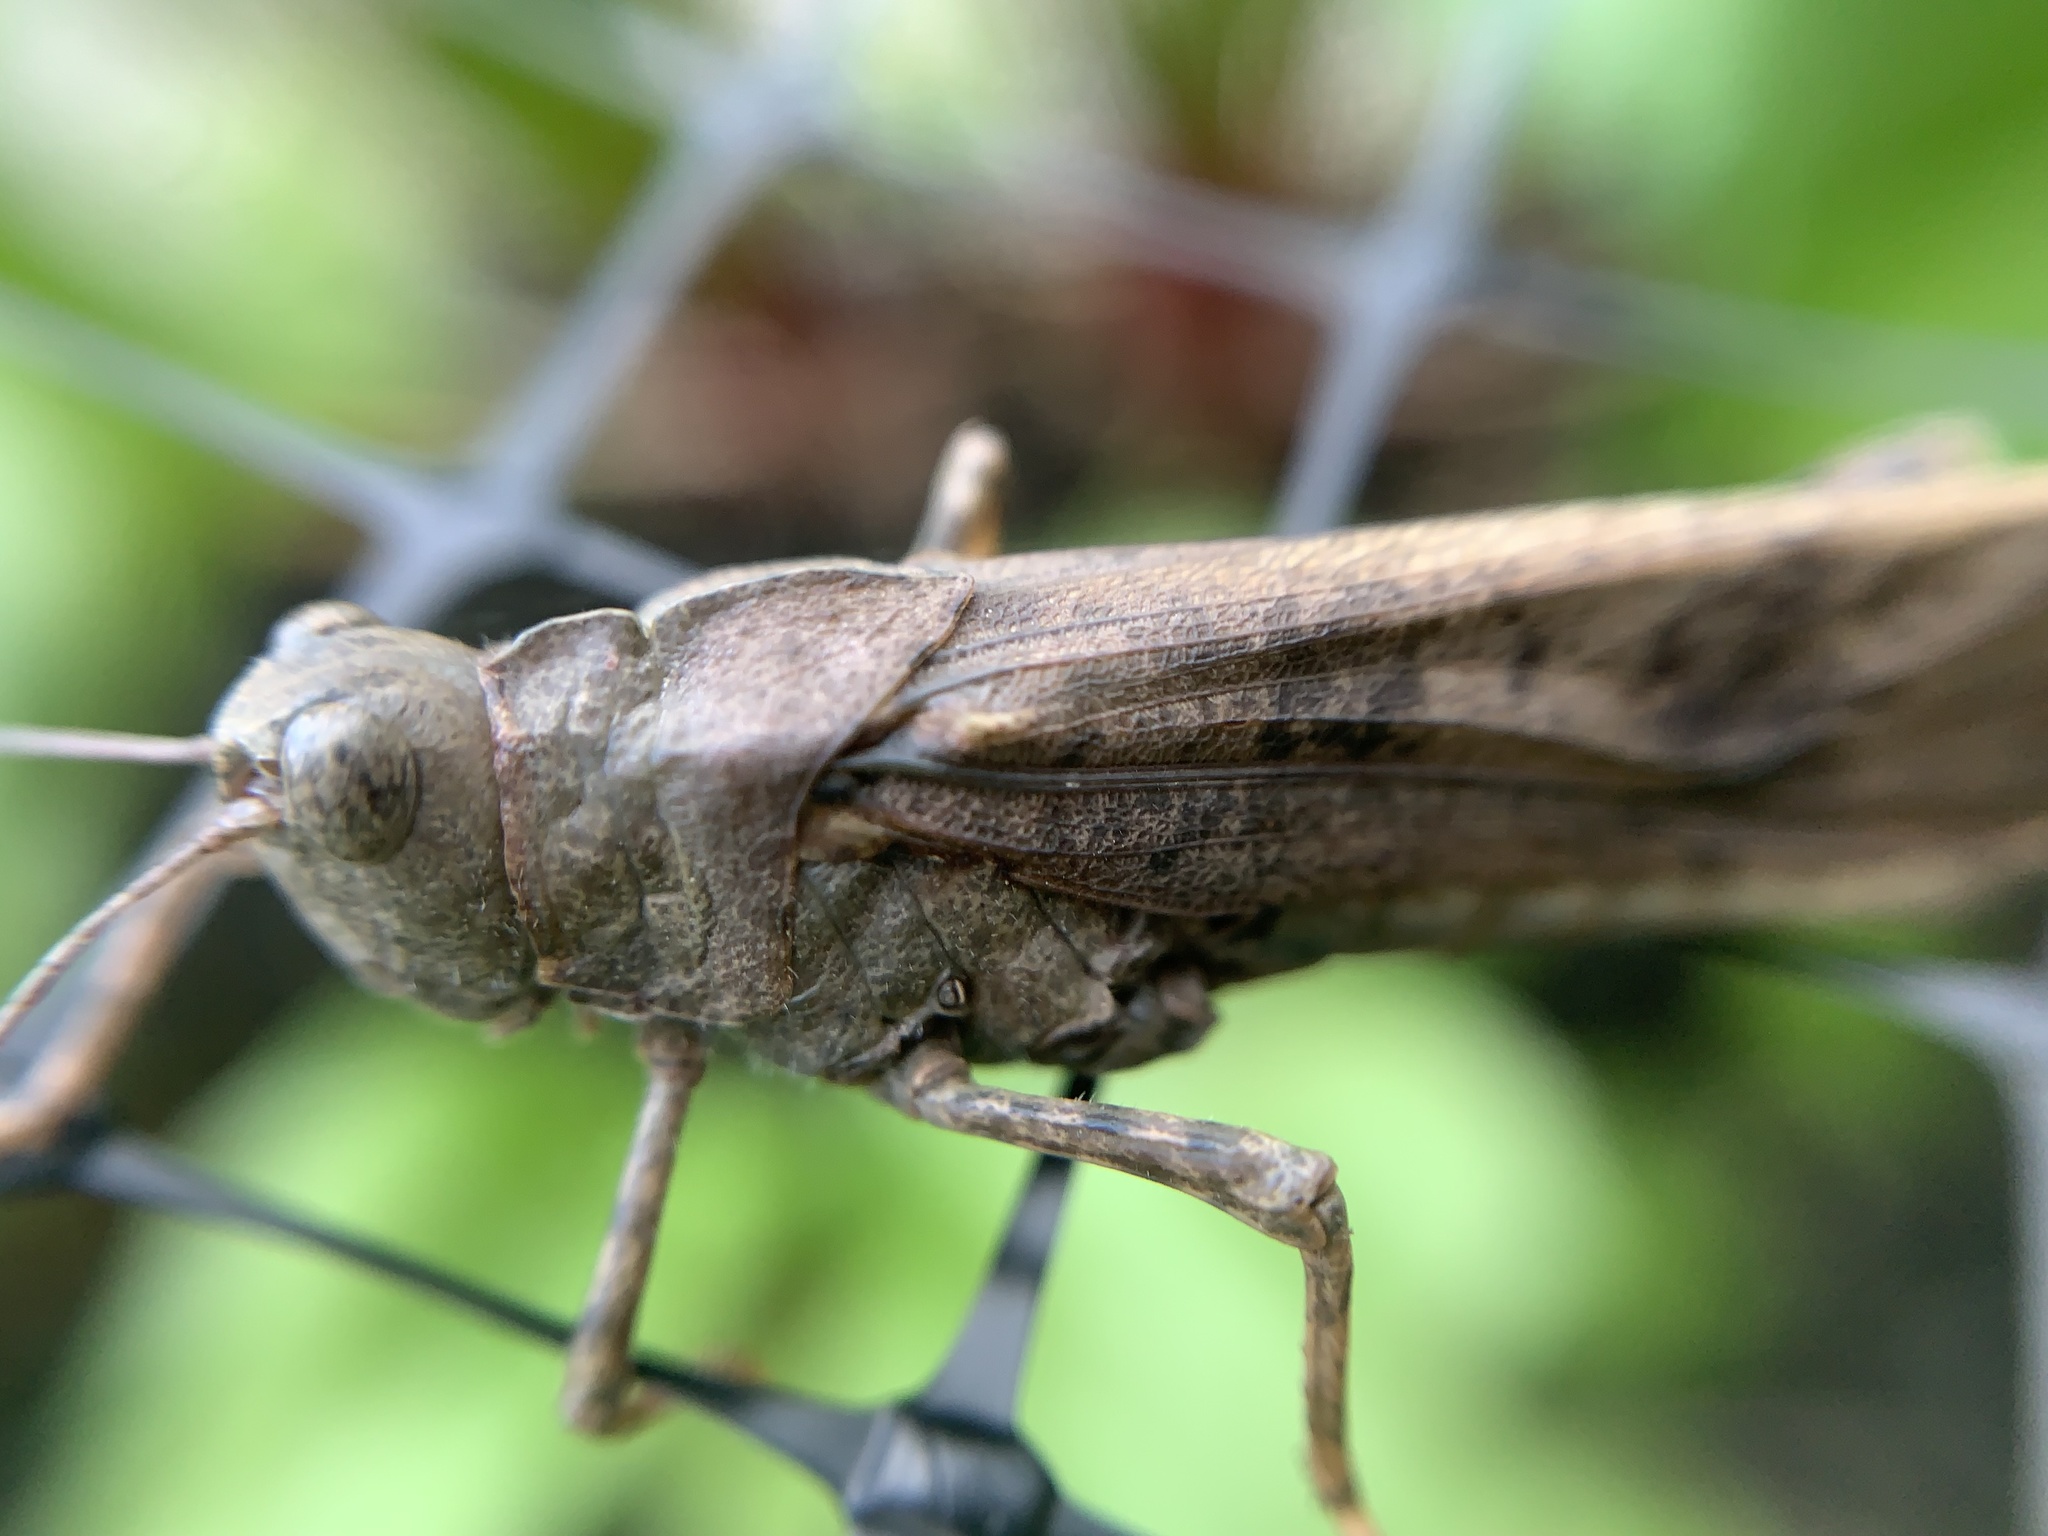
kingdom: Animalia
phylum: Arthropoda
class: Insecta
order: Orthoptera
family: Acrididae
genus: Dissosteira
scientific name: Dissosteira carolina
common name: Carolina grasshopper
